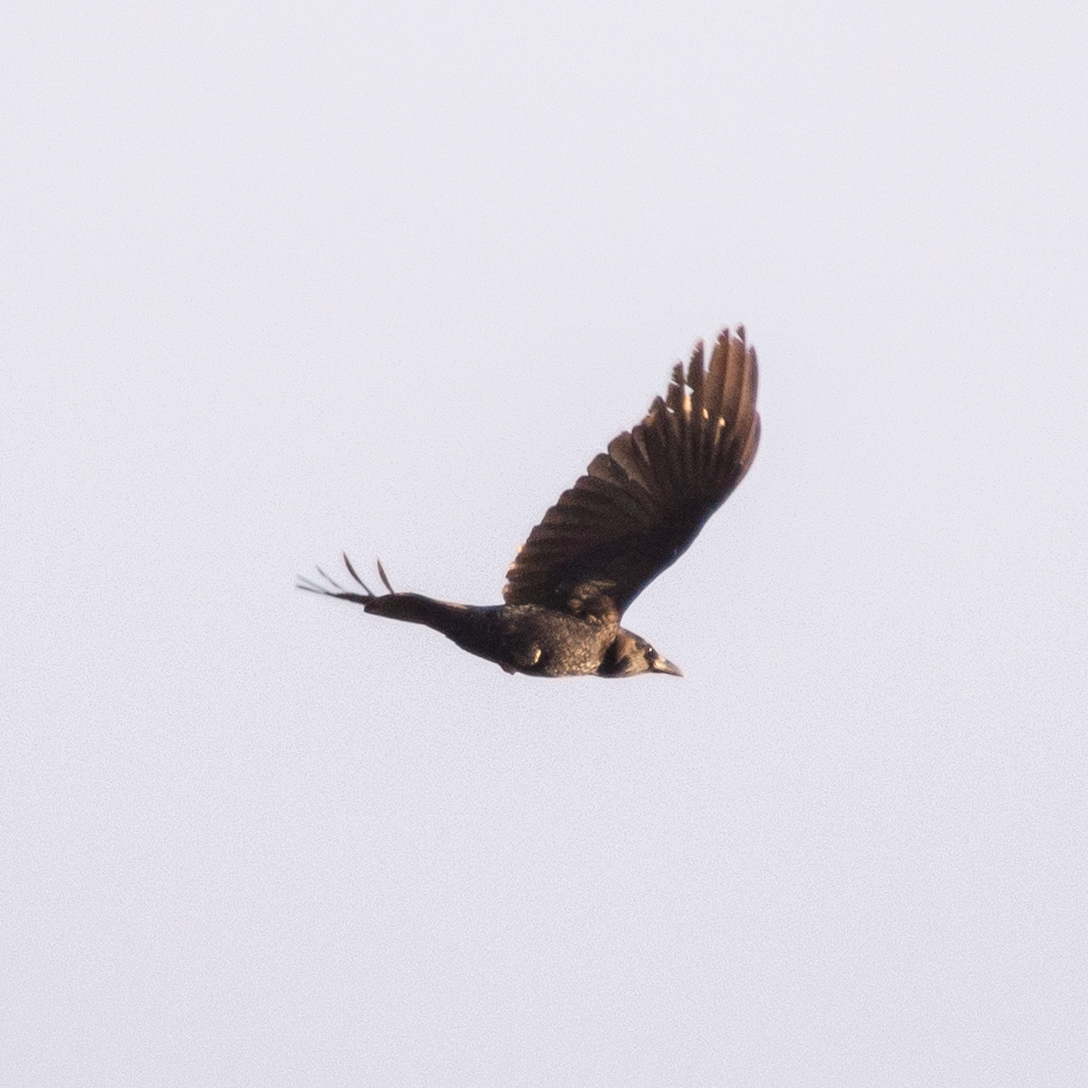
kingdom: Animalia
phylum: Chordata
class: Aves
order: Passeriformes
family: Corvidae
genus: Corvus
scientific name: Corvus corone
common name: Carrion crow
